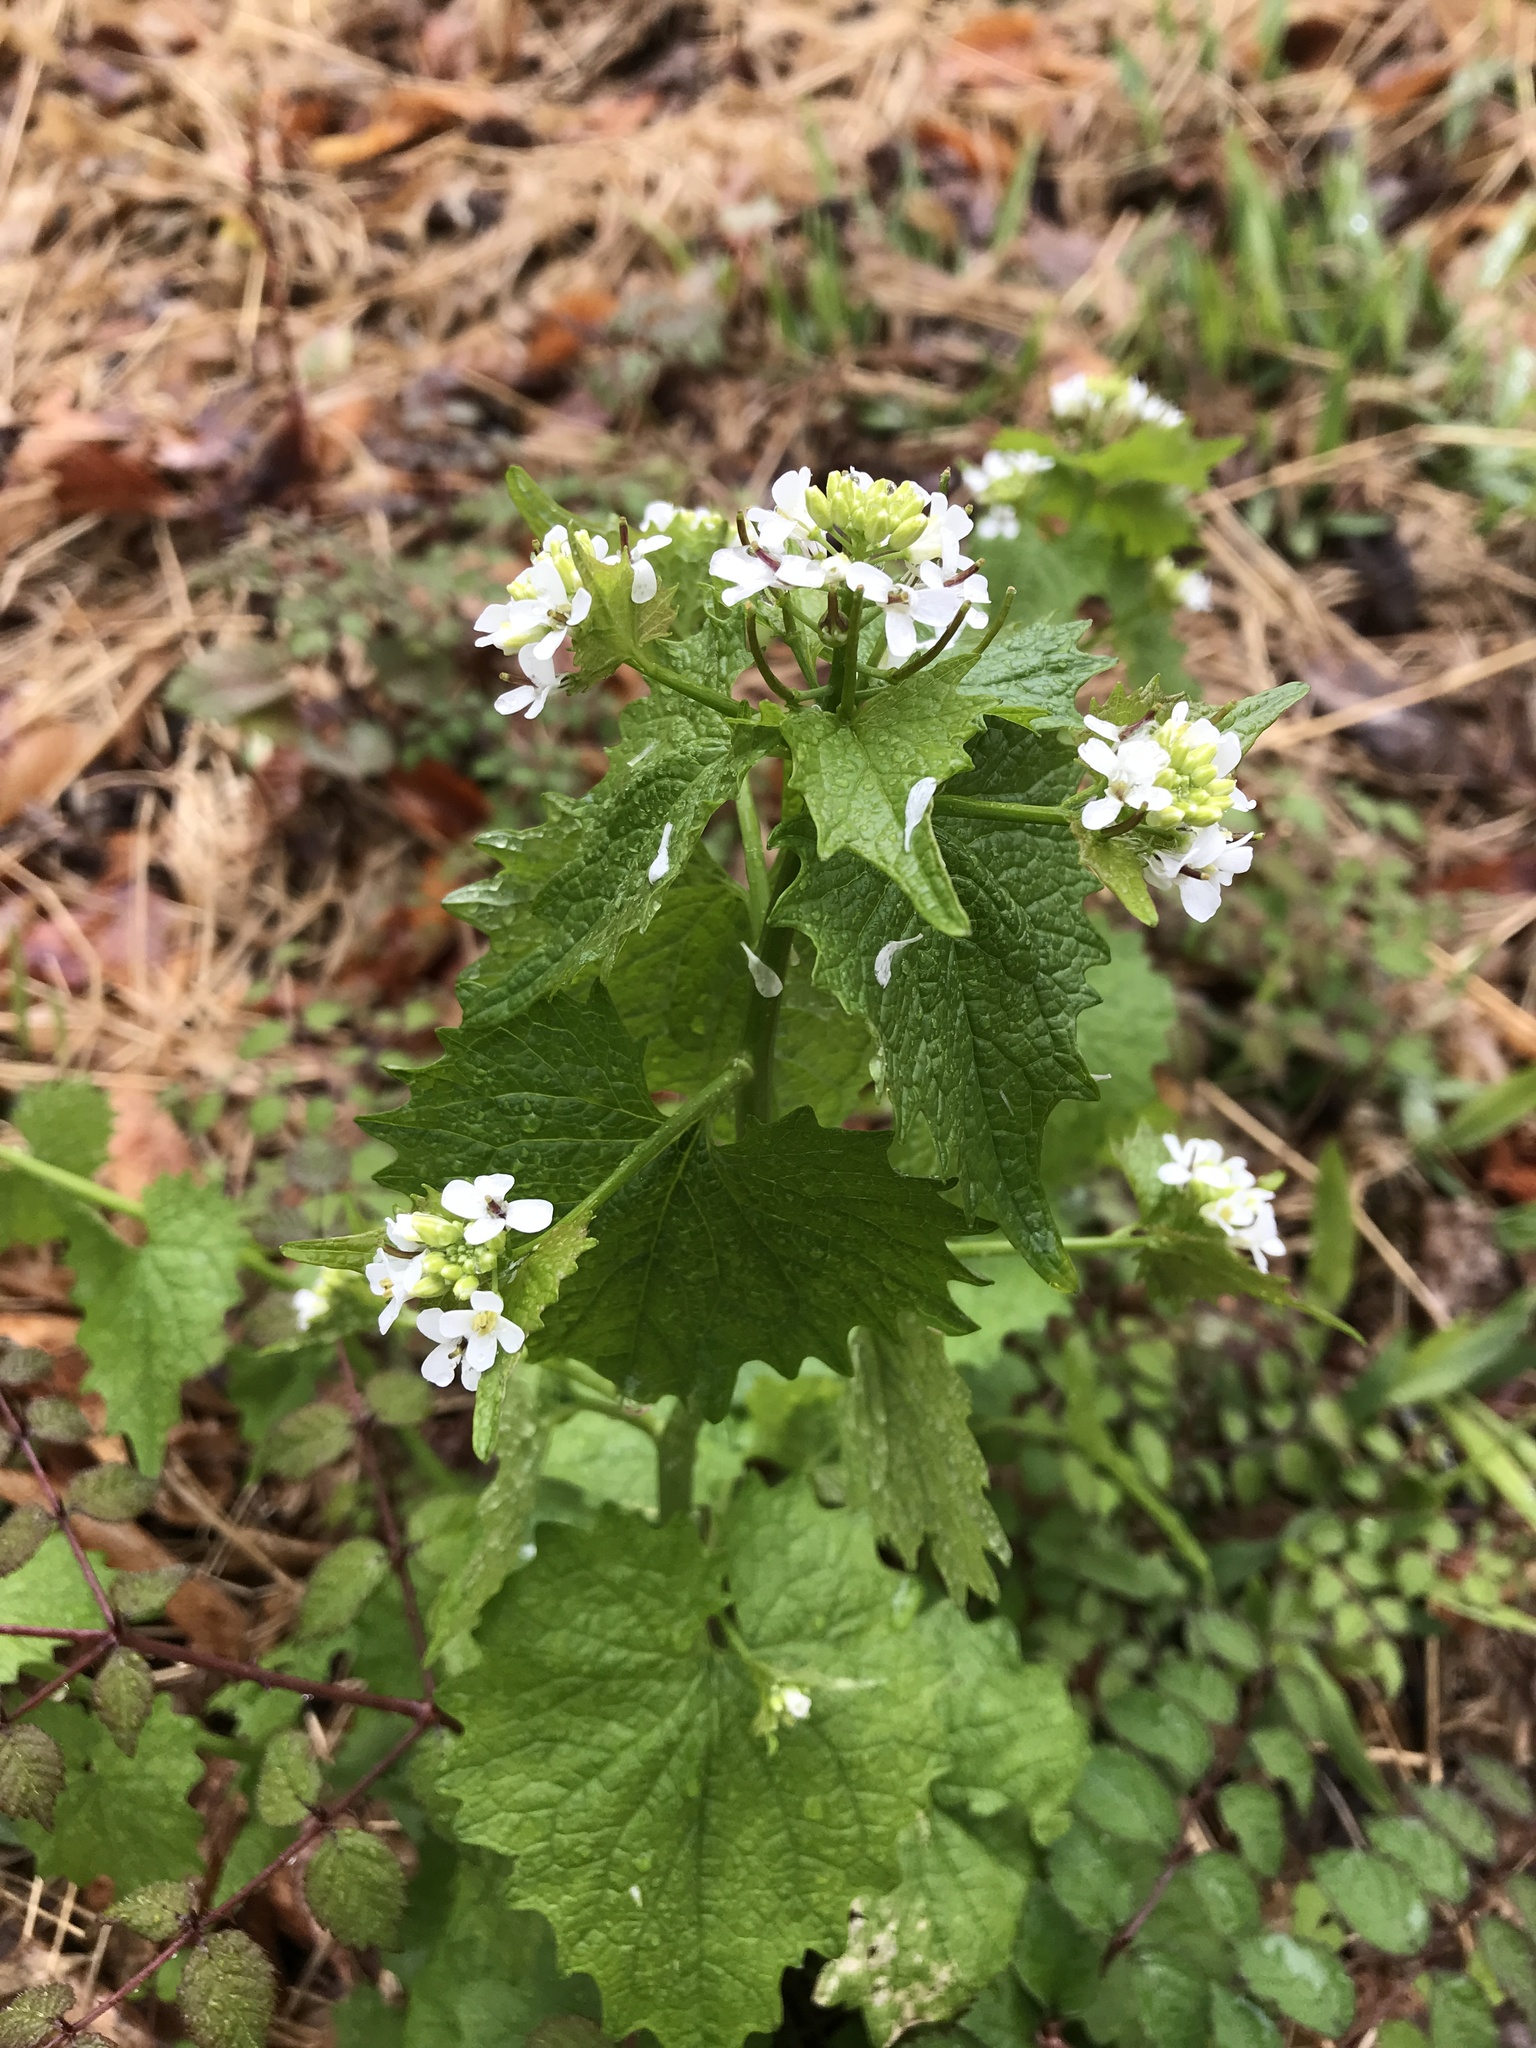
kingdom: Plantae
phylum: Tracheophyta
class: Magnoliopsida
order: Brassicales
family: Brassicaceae
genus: Alliaria
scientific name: Alliaria petiolata
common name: Garlic mustard
